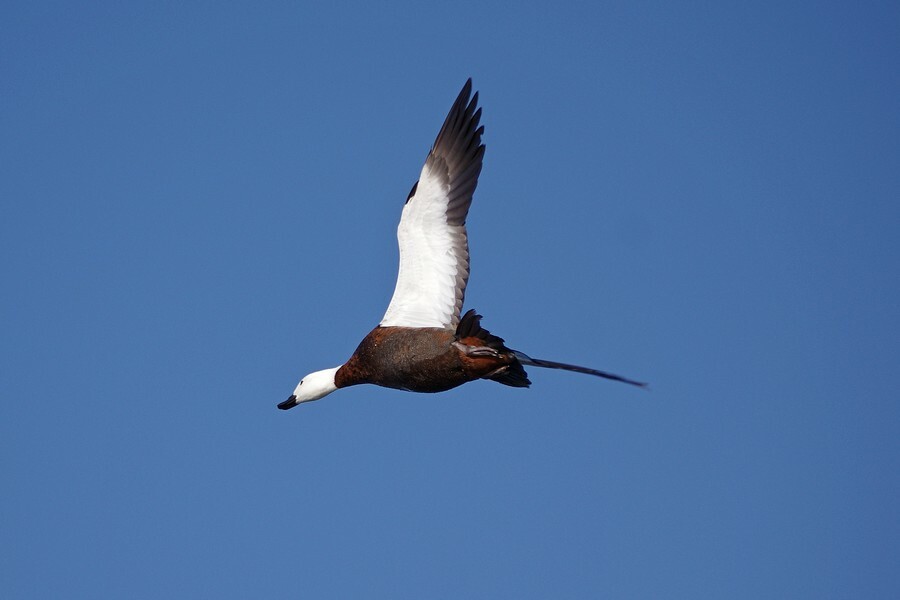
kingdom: Animalia
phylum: Chordata
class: Aves
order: Anseriformes
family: Anatidae
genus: Tadorna
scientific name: Tadorna variegata
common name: Paradise shelduck
